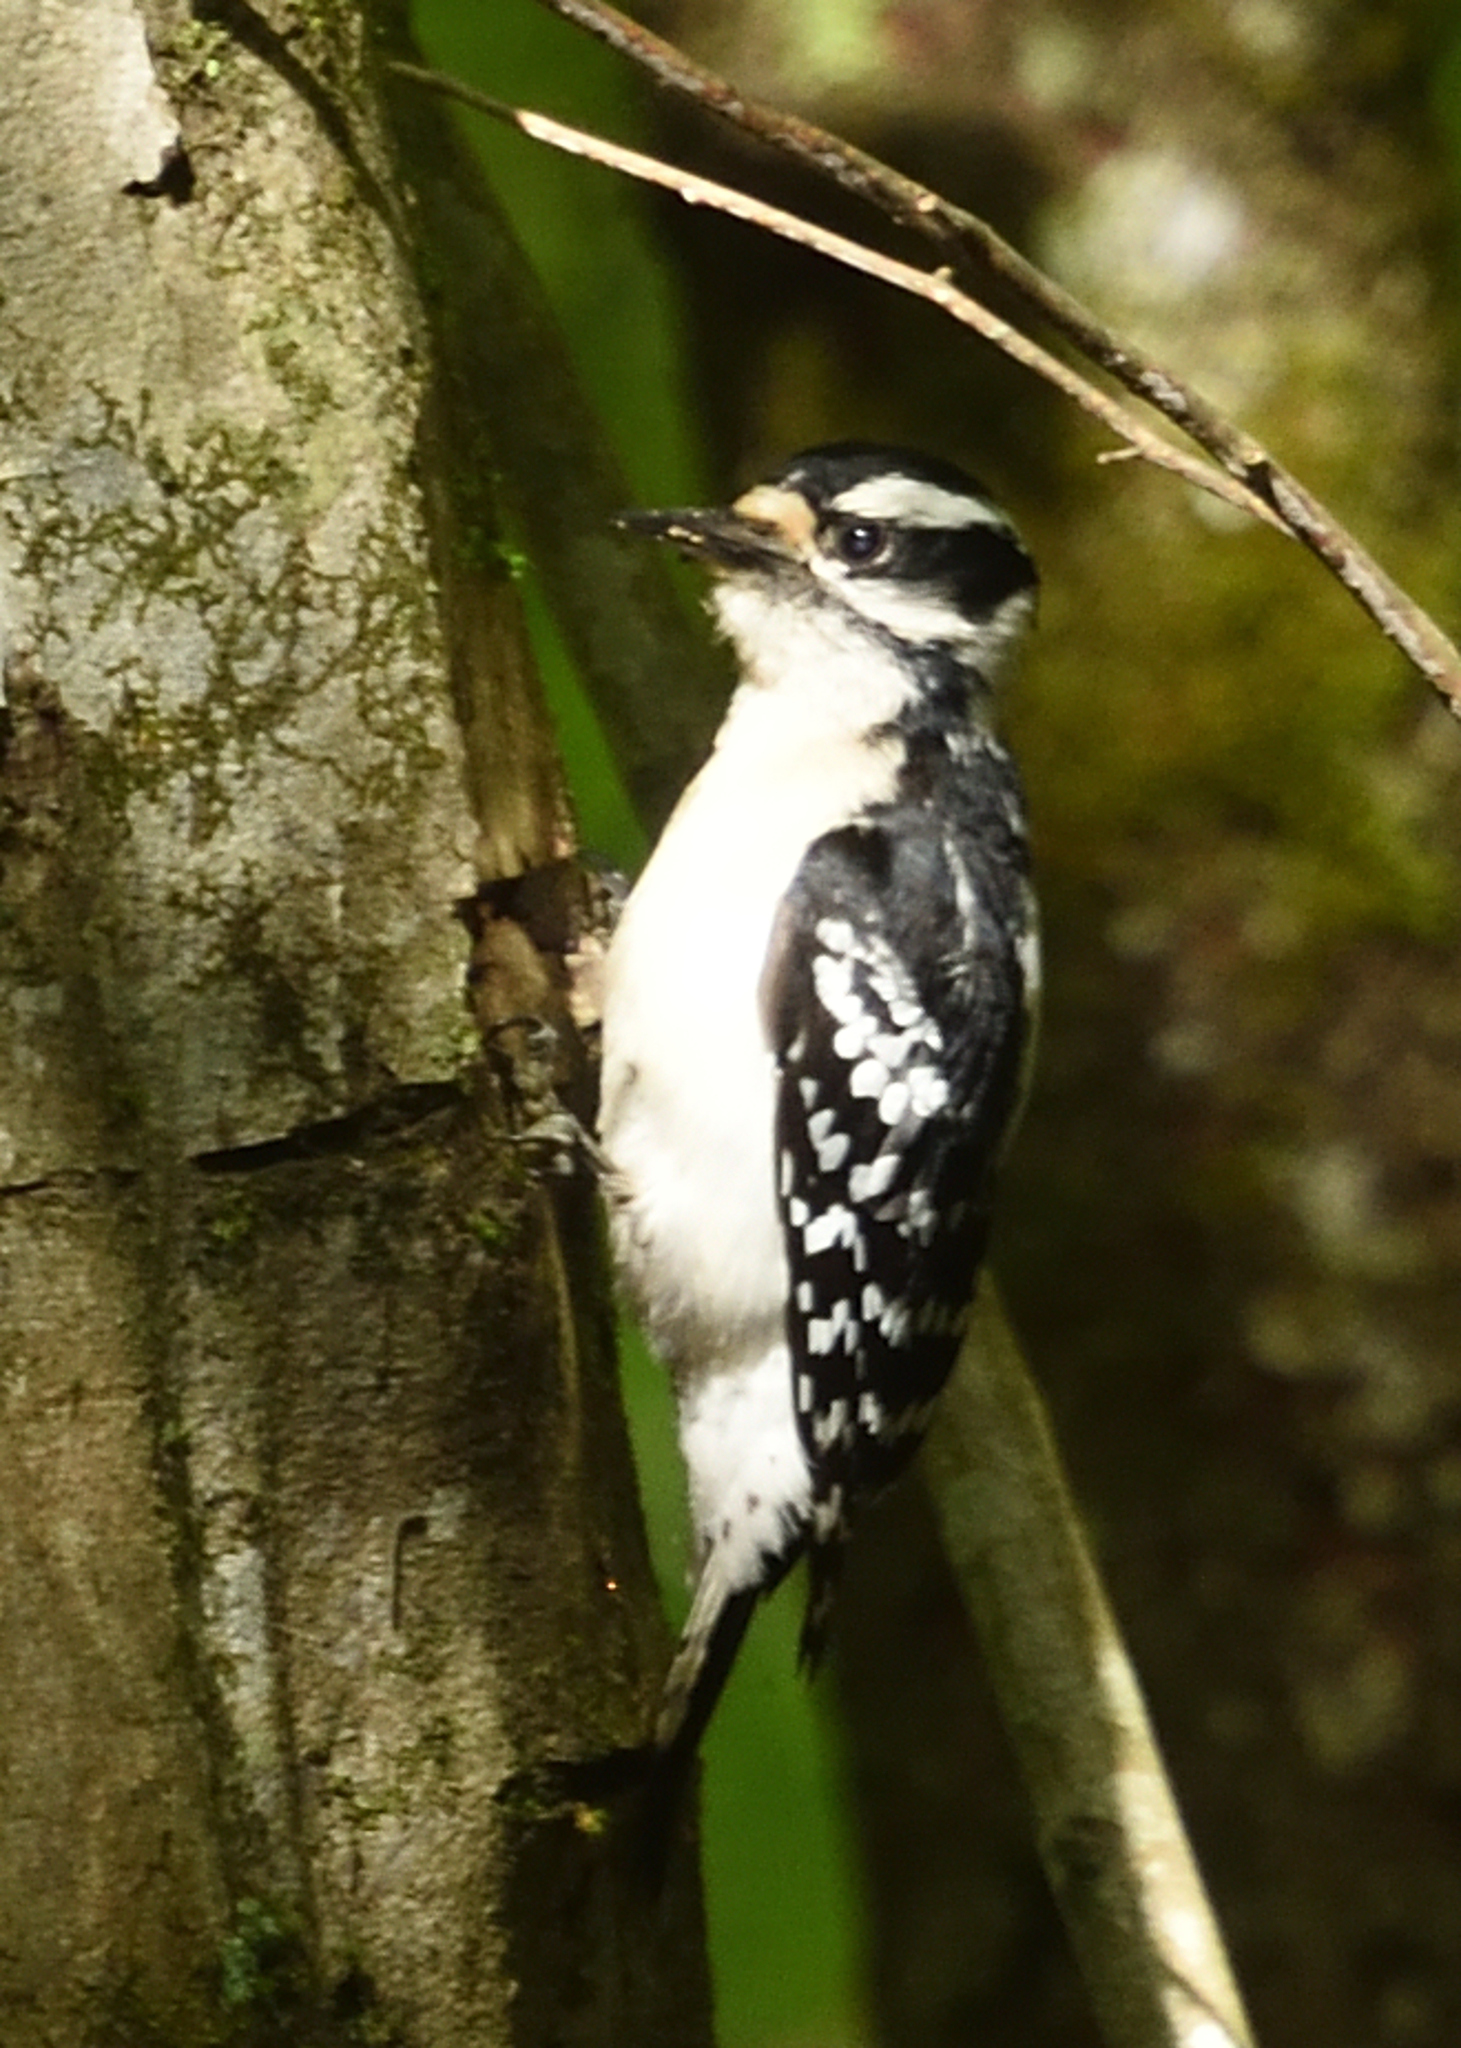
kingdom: Animalia
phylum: Chordata
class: Aves
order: Piciformes
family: Picidae
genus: Dryobates
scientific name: Dryobates pubescens
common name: Downy woodpecker
